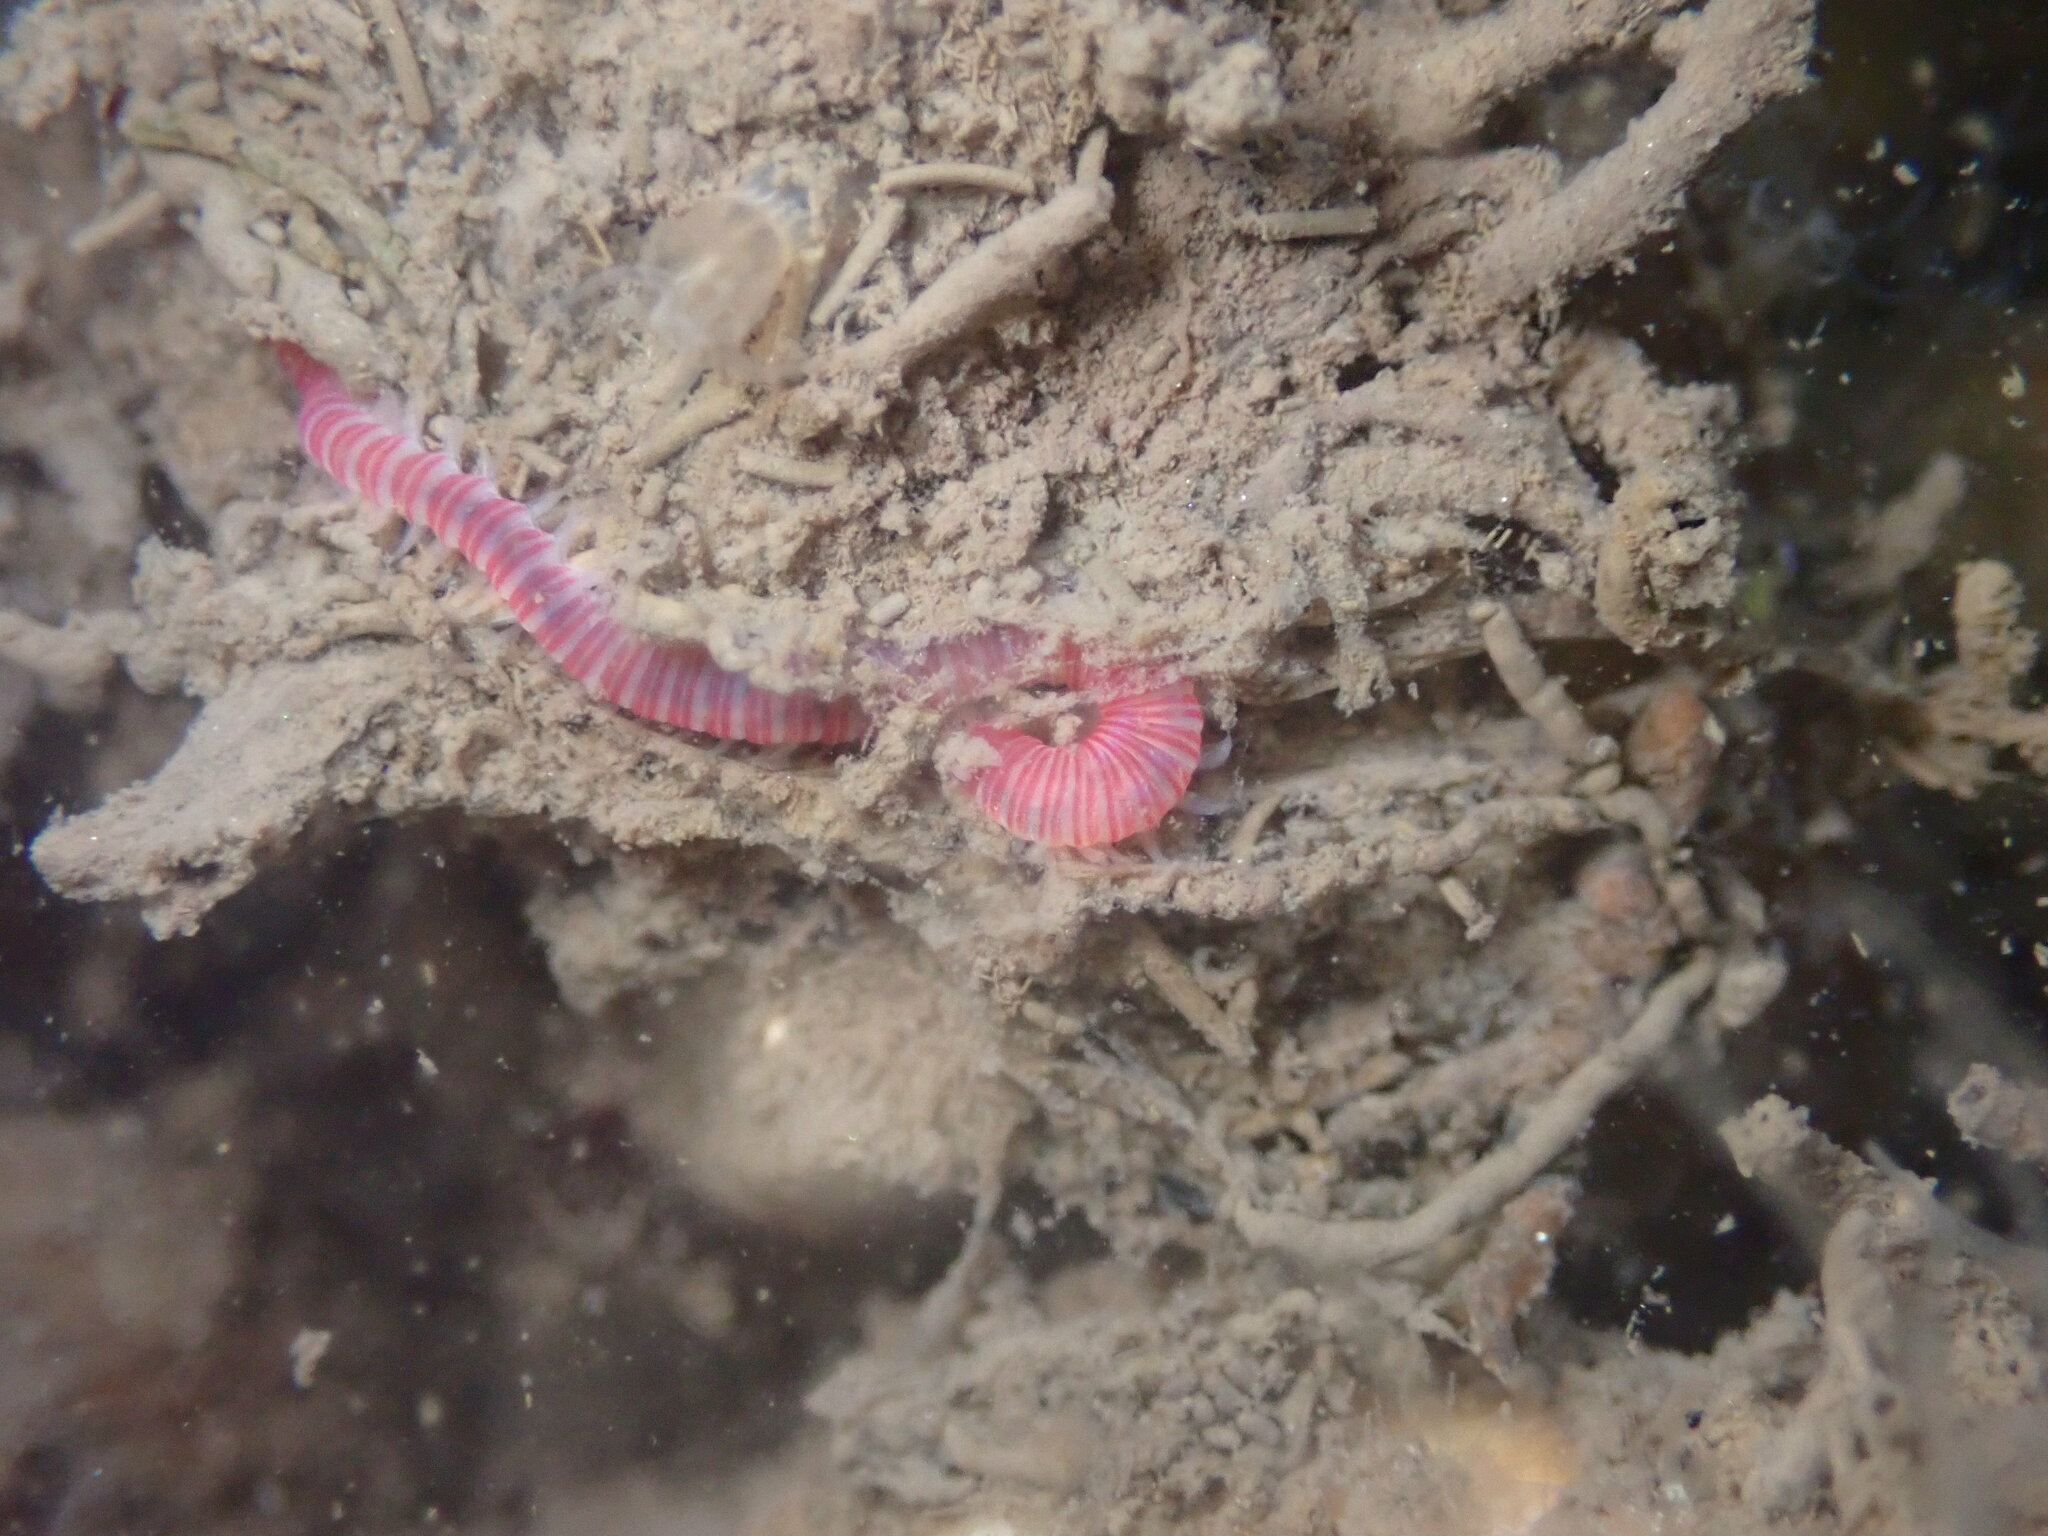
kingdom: Animalia
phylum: Annelida
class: Polychaeta
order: Eunicida
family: Dorvilleidae
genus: Dorvillea
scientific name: Dorvillea moniloceras
